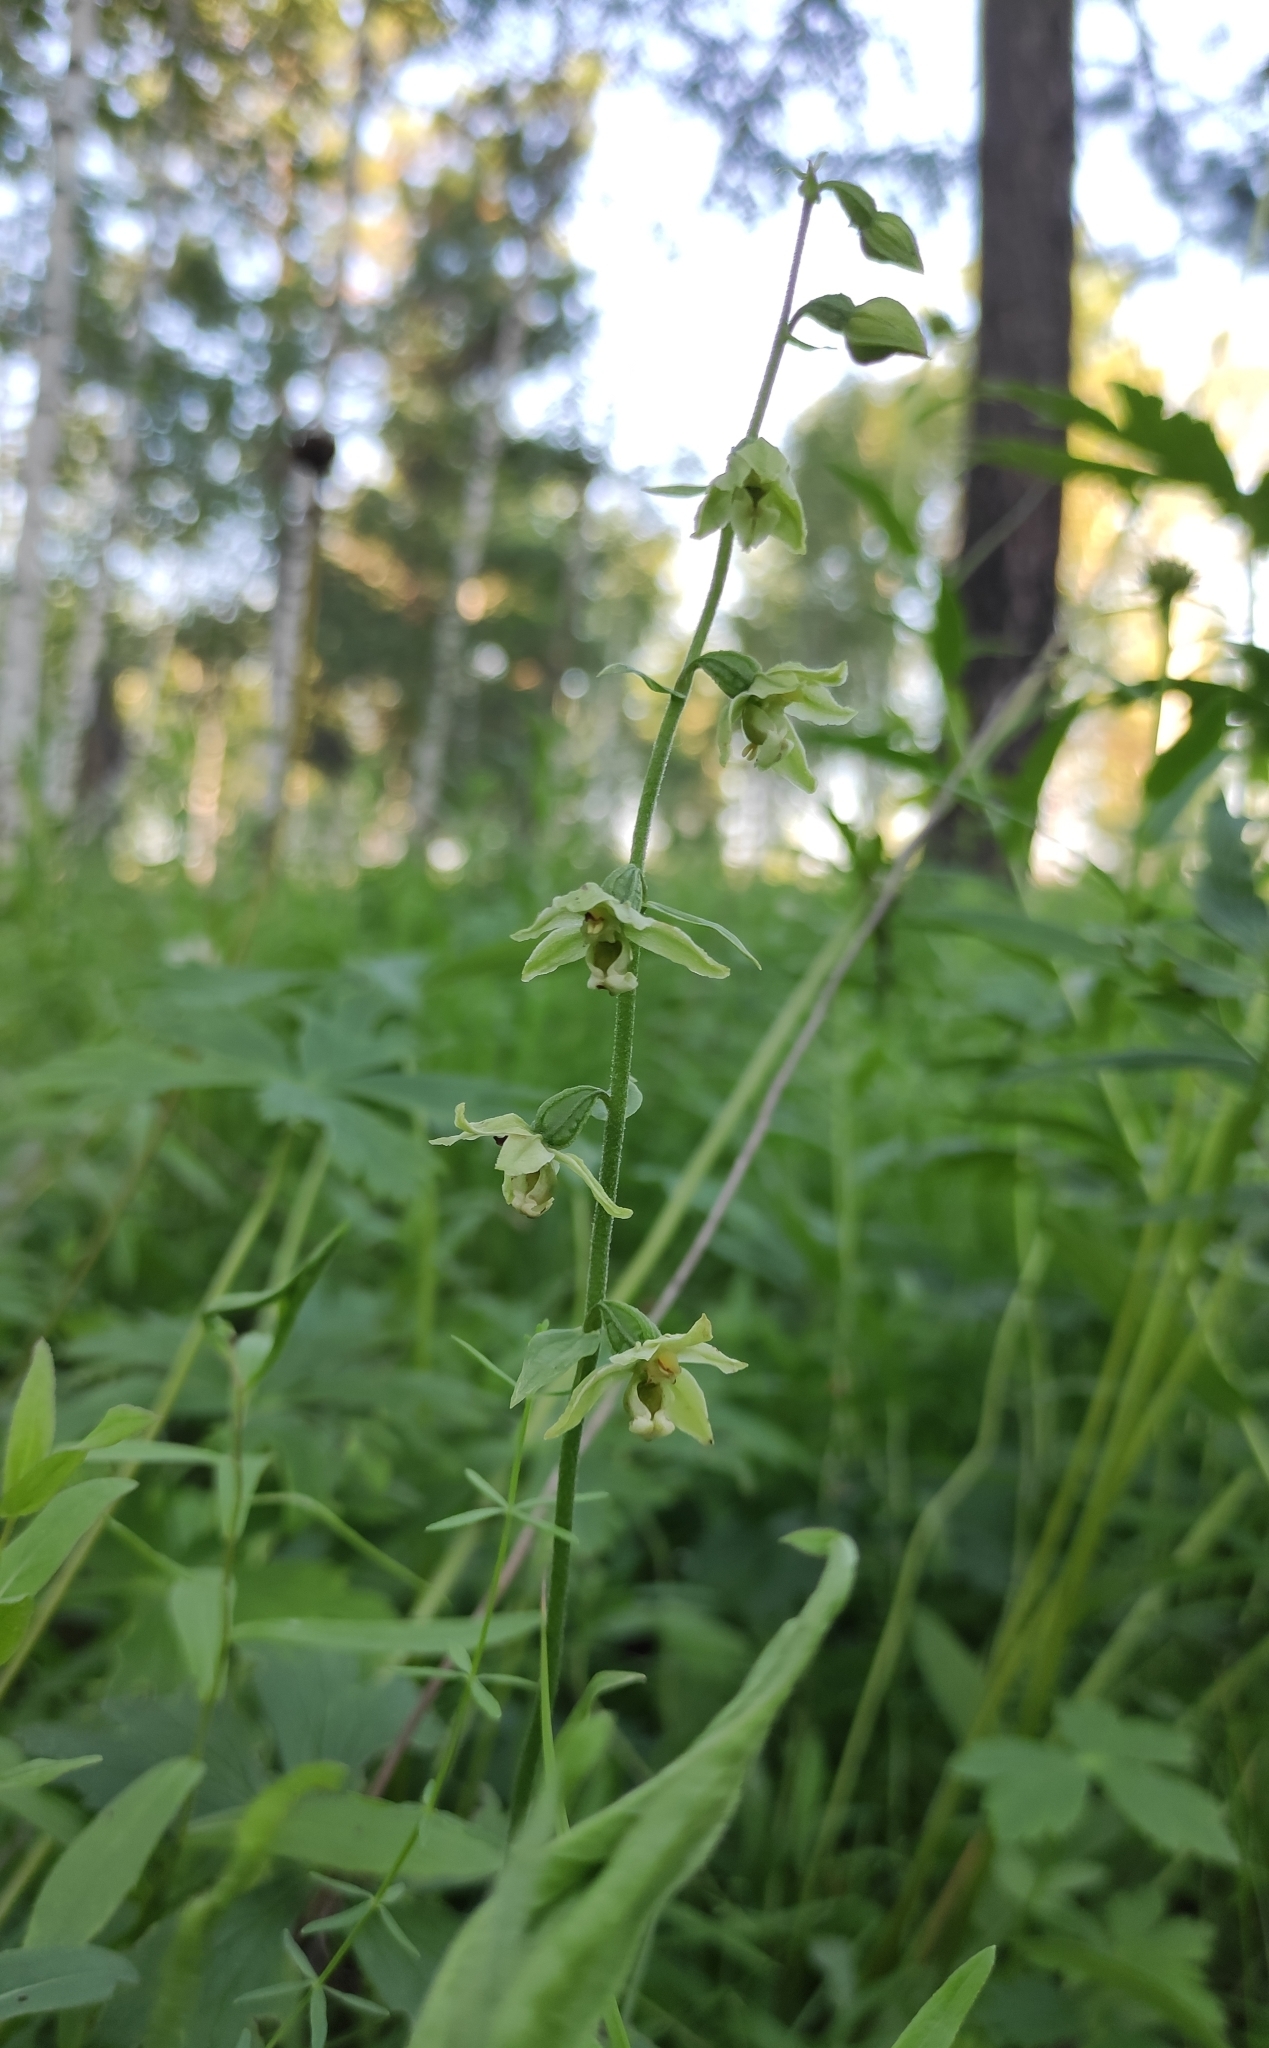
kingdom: Plantae
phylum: Tracheophyta
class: Liliopsida
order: Asparagales
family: Orchidaceae
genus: Epipactis
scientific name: Epipactis helleborine
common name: Broad-leaved helleborine
